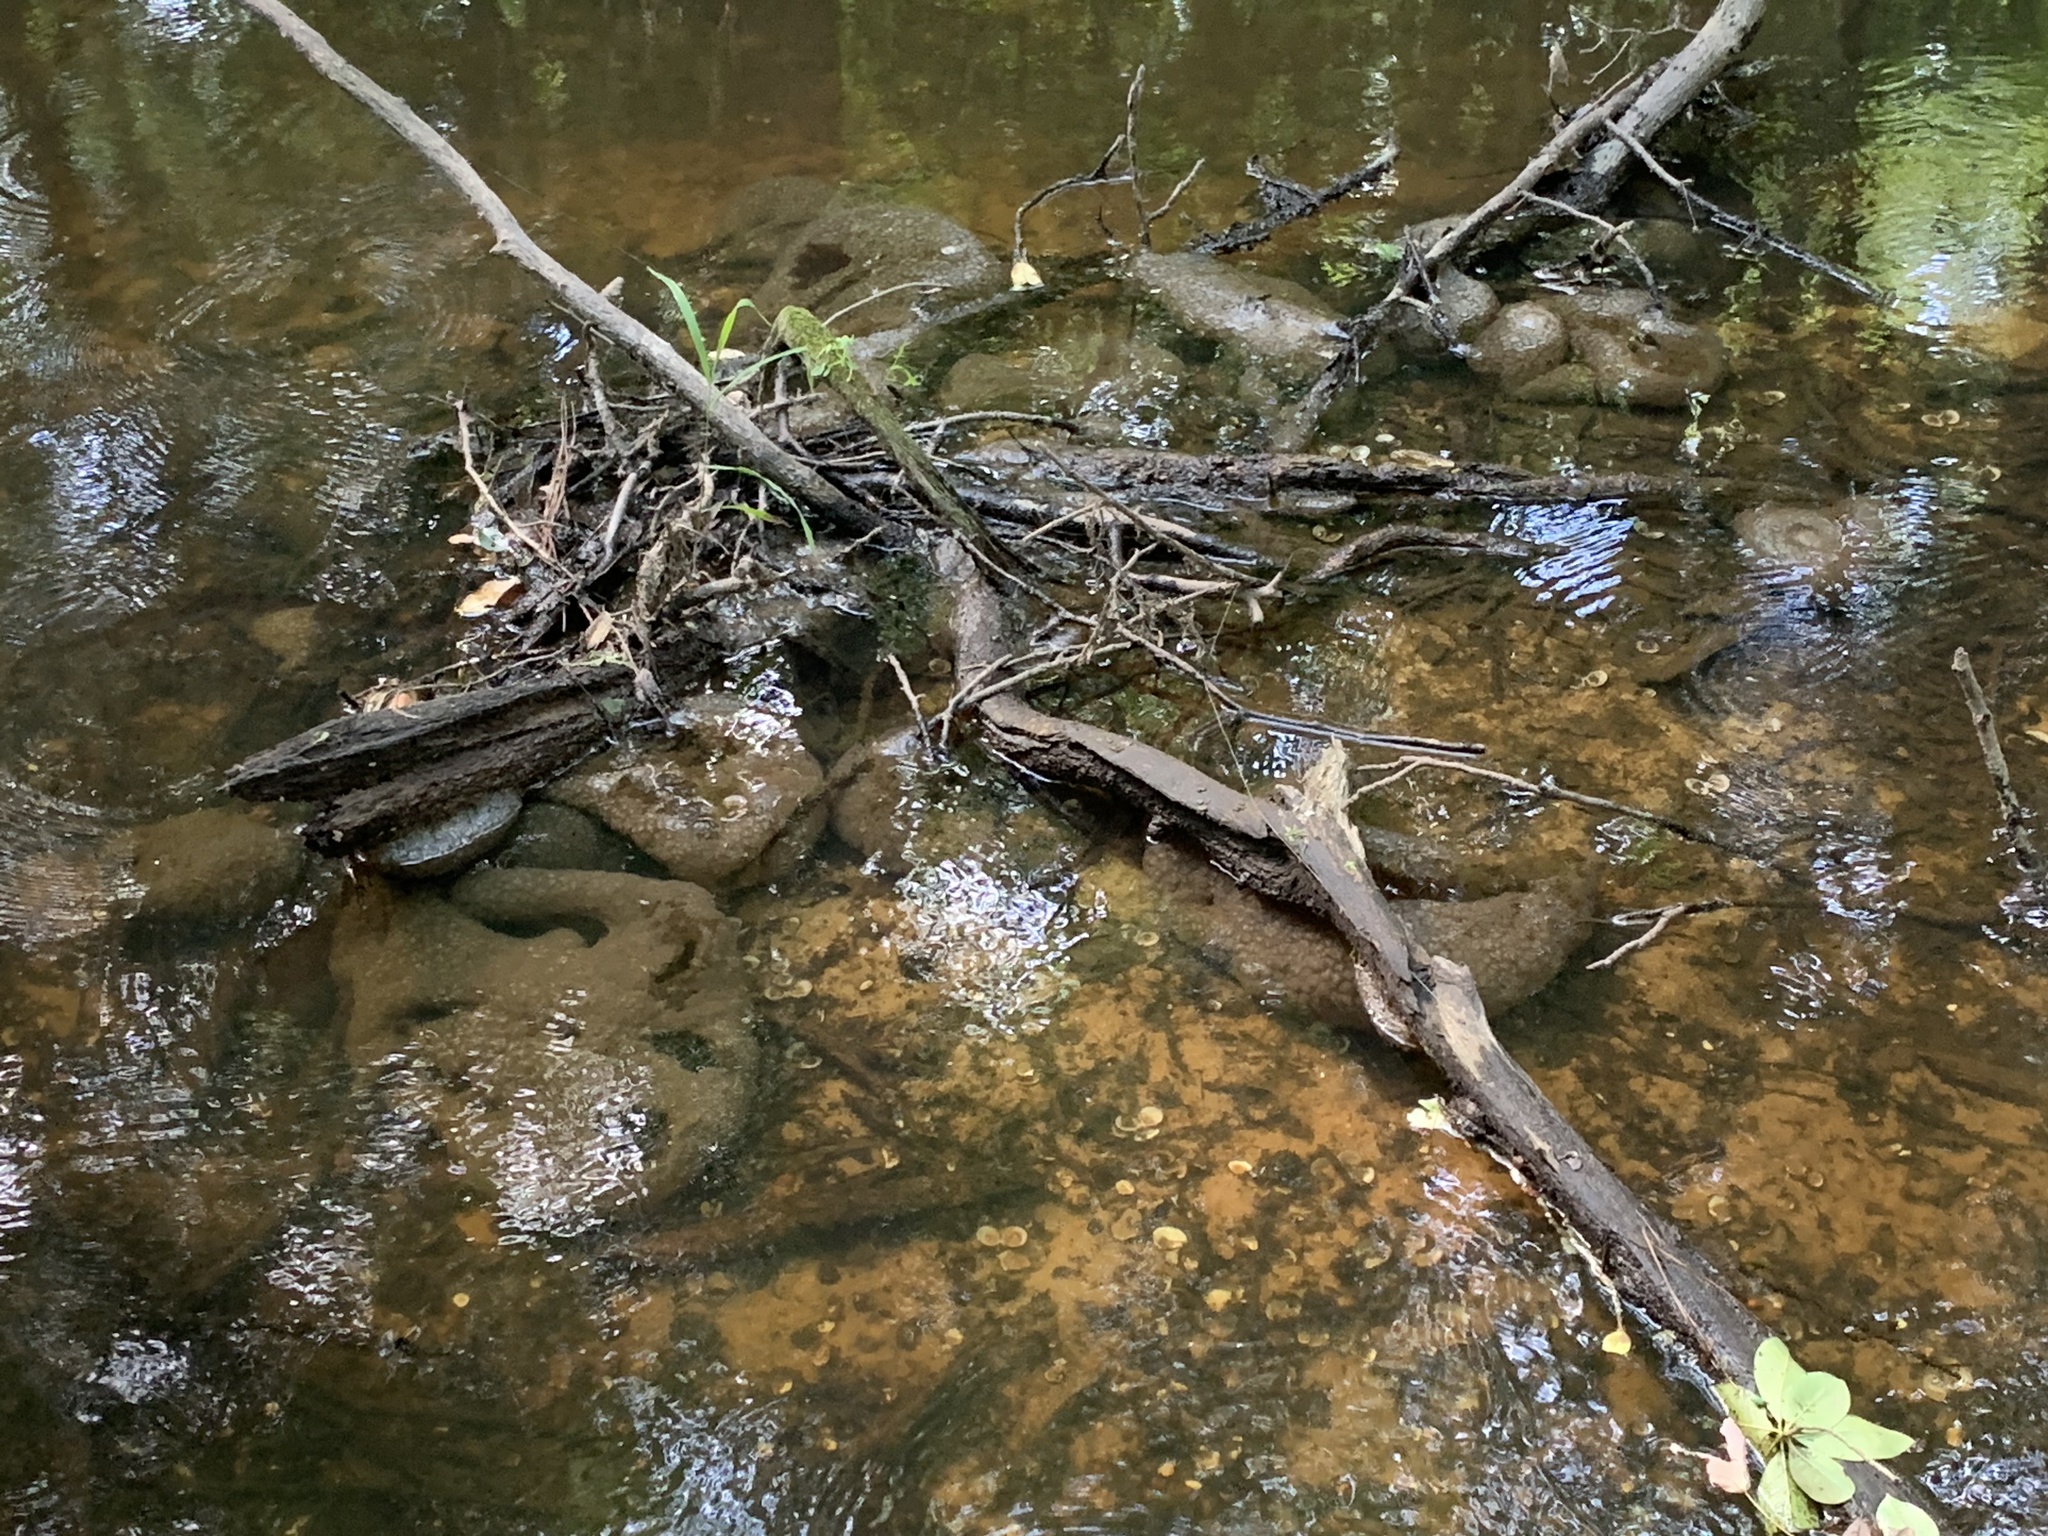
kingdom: Animalia
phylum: Bryozoa
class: Phylactolaemata
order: Plumatellida
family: Pectinatellidae
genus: Pectinatella
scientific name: Pectinatella magnifica
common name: Magnificent bryozoan
